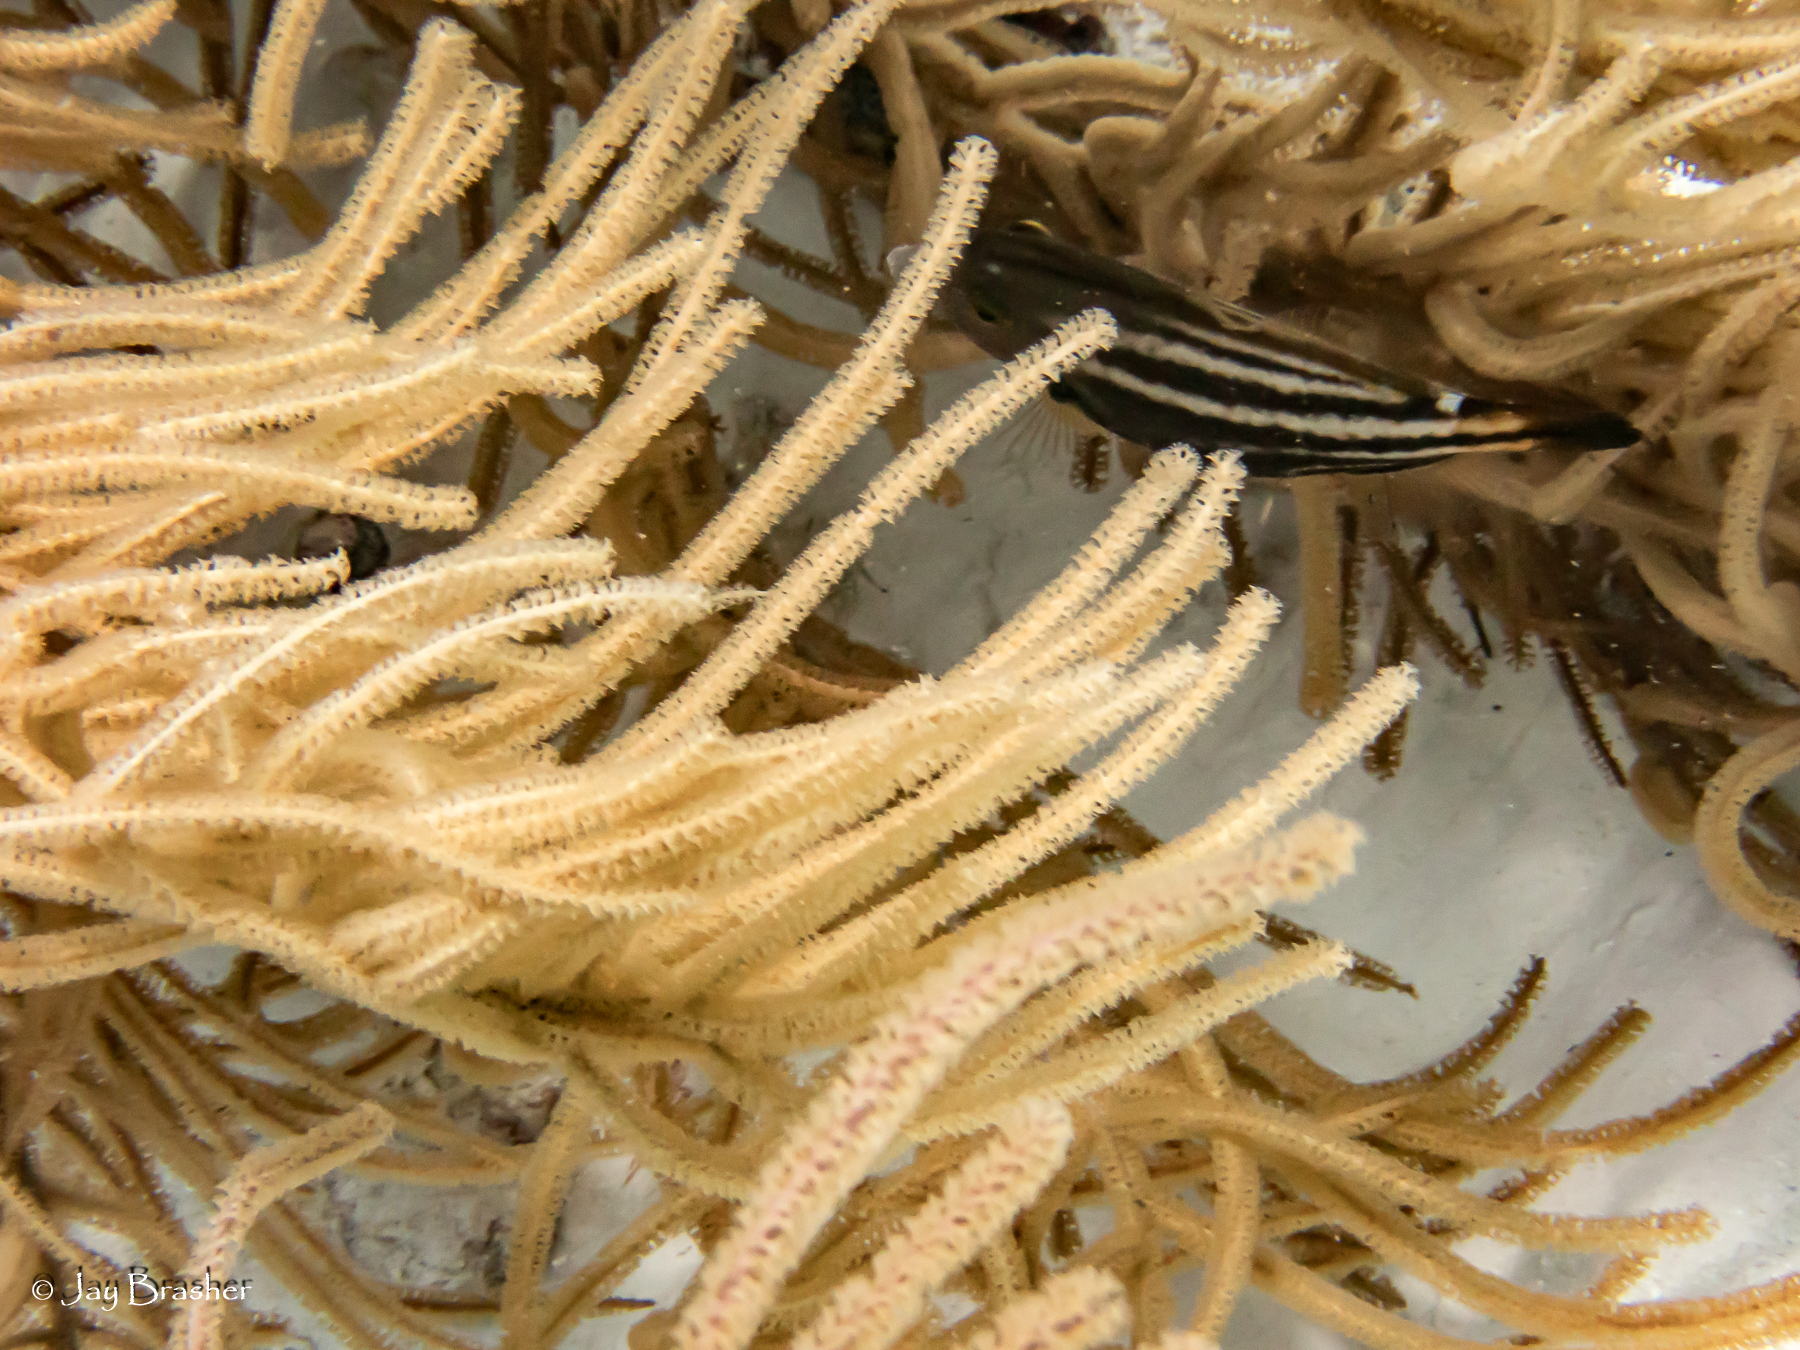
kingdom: Animalia
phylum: Chordata
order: Tetraodontiformes
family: Monacanthidae
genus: Cantherhines
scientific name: Cantherhines pullus
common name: Orangespotted filefish
